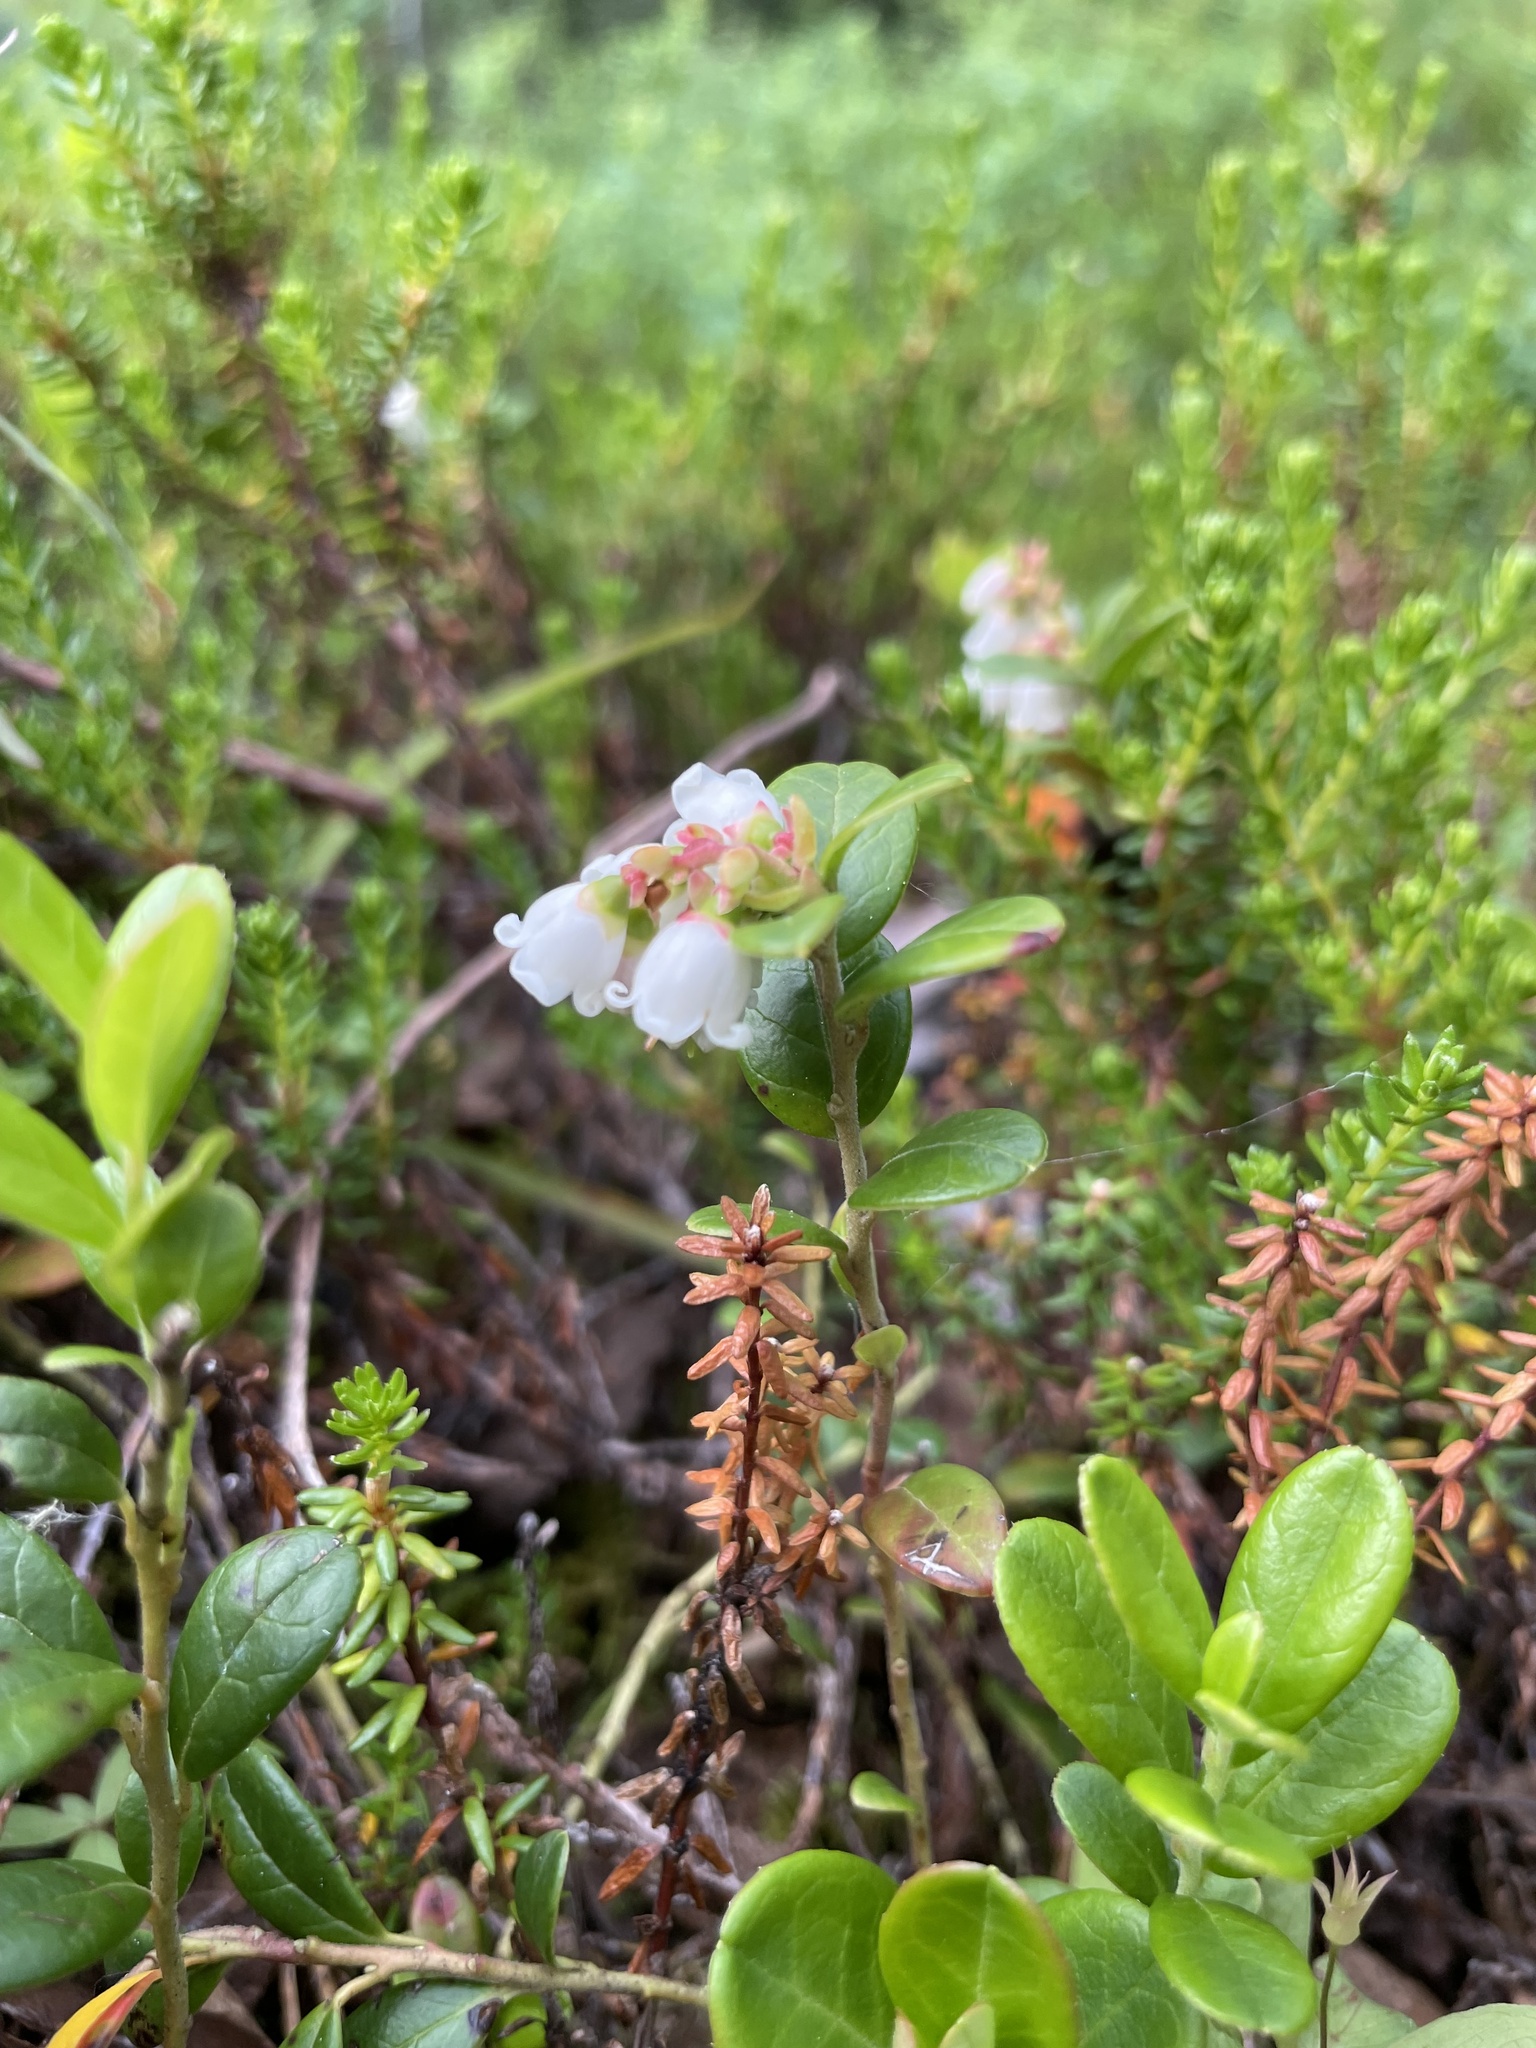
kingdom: Plantae
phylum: Tracheophyta
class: Magnoliopsida
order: Ericales
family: Ericaceae
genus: Vaccinium
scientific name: Vaccinium vitis-idaea
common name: Cowberry
